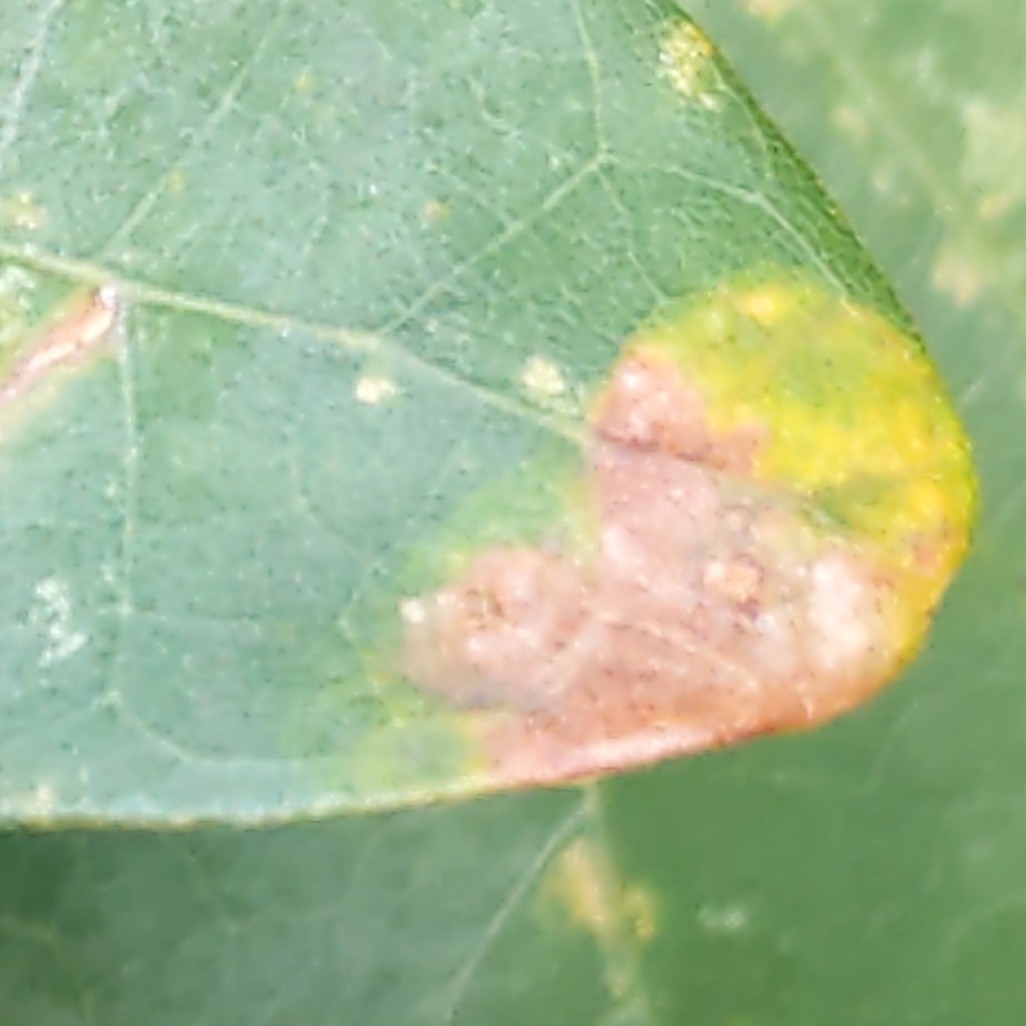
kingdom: Animalia
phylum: Arthropoda
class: Insecta
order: Lepidoptera
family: Gracillariidae
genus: Phyllonorycter
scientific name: Phyllonorycter
